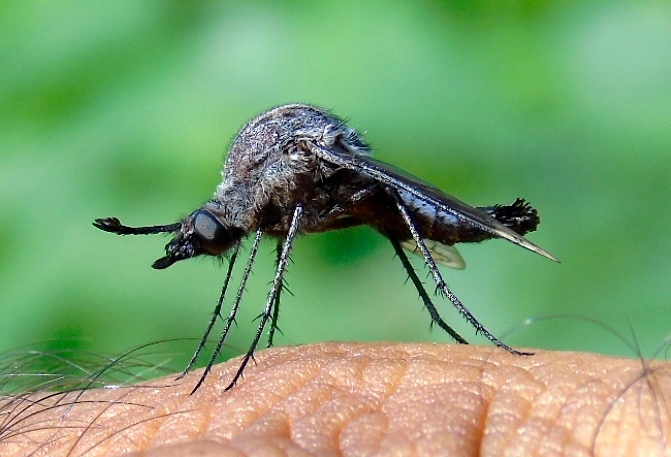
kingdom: Animalia
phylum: Arthropoda
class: Insecta
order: Diptera
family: Bombyliidae
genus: Lepidophora
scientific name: Lepidophora vetusta
